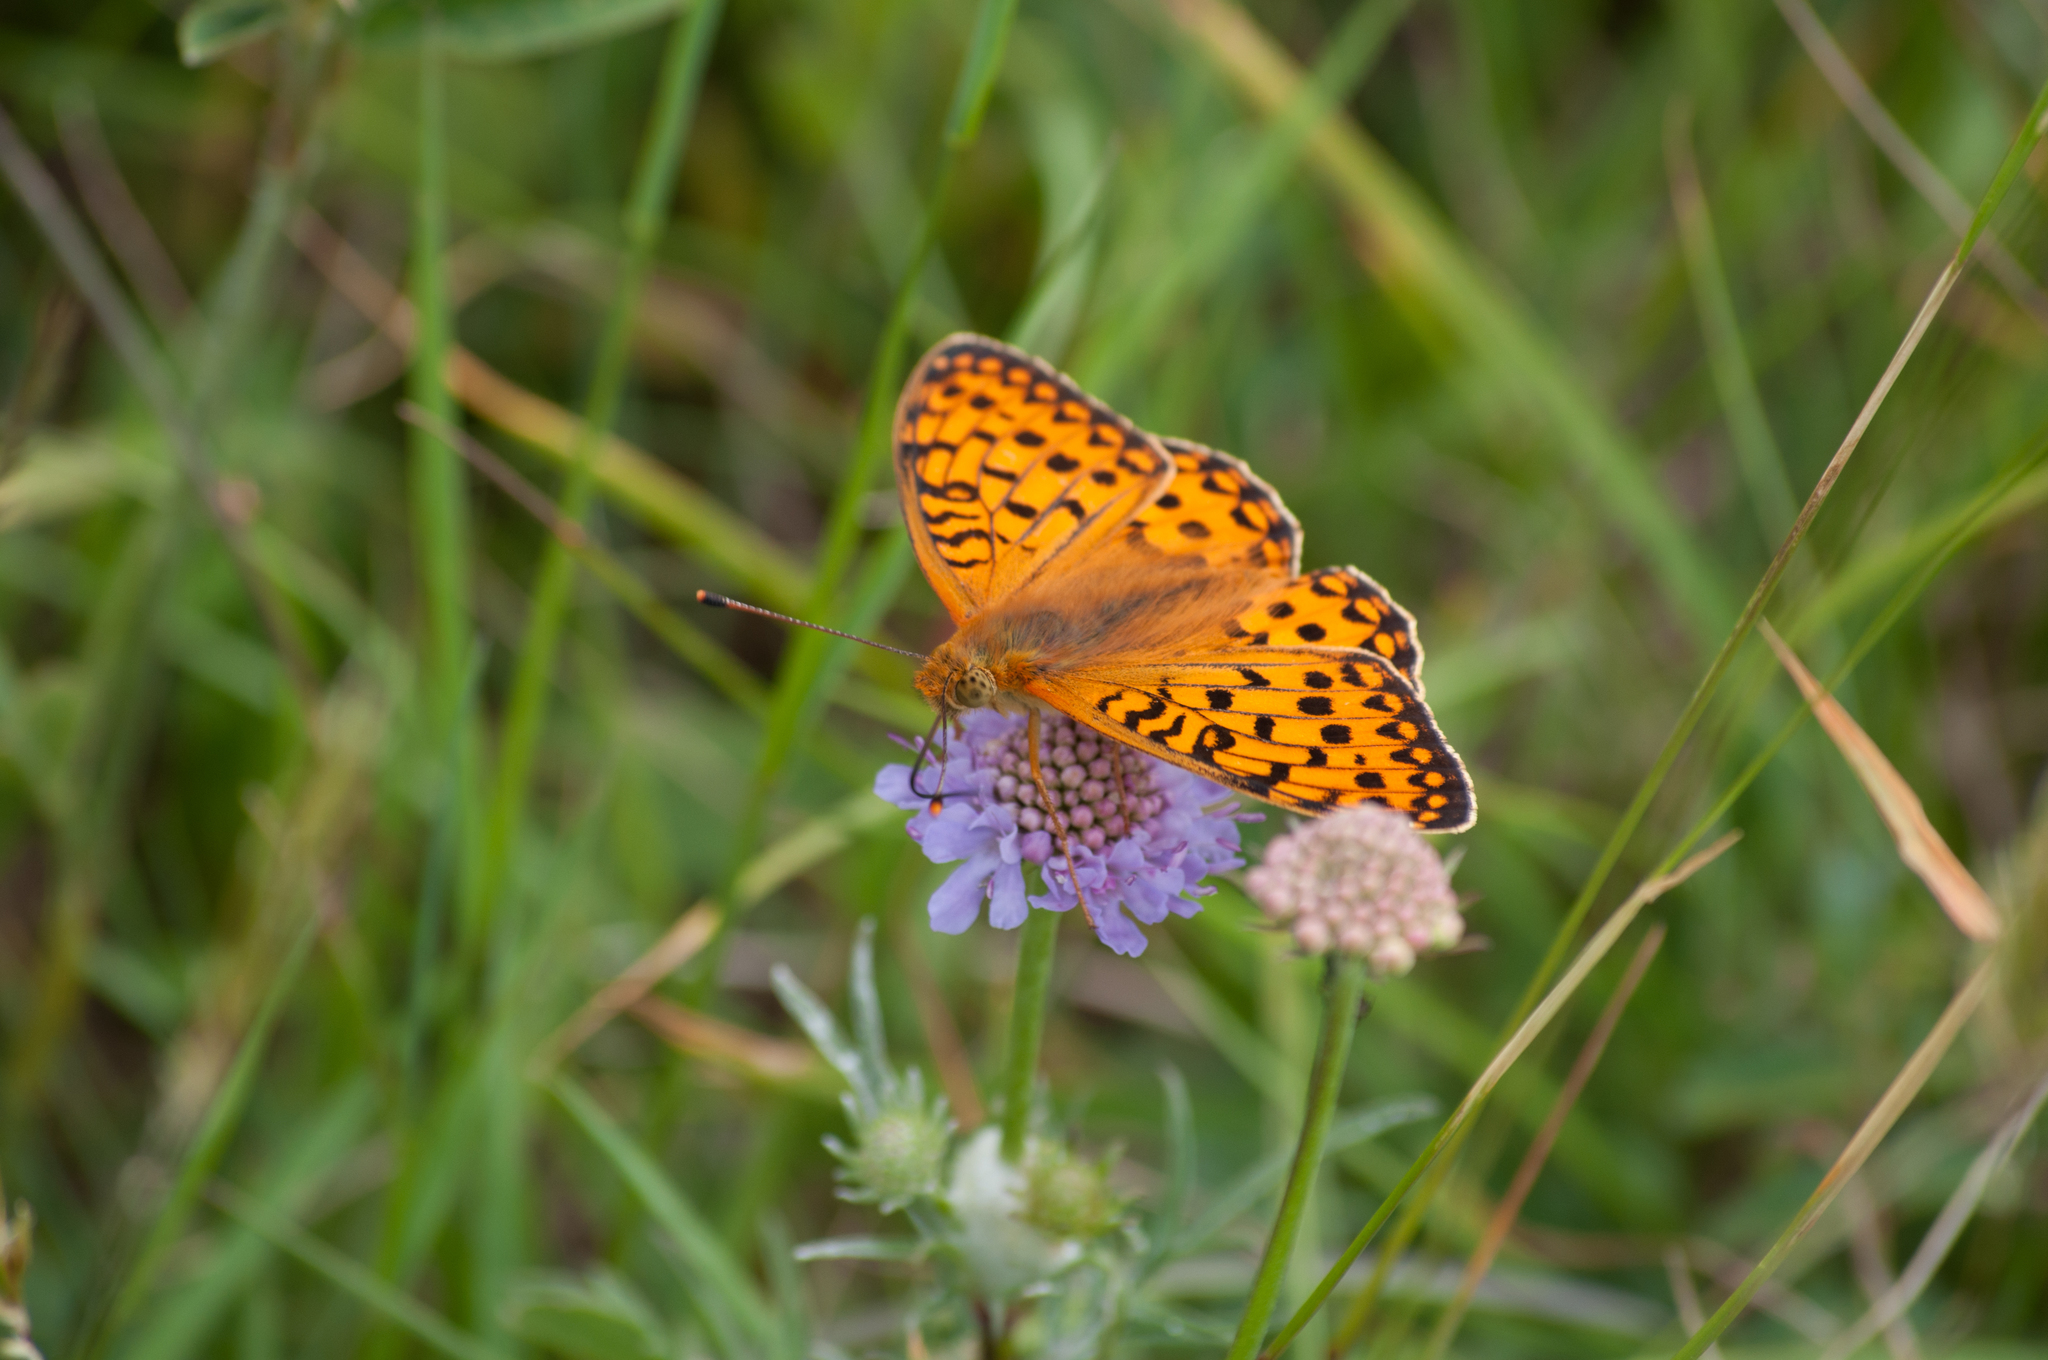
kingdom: Animalia
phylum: Arthropoda
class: Insecta
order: Lepidoptera
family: Nymphalidae
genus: Speyeria
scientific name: Speyeria aglaja
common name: Dark green fritillary
